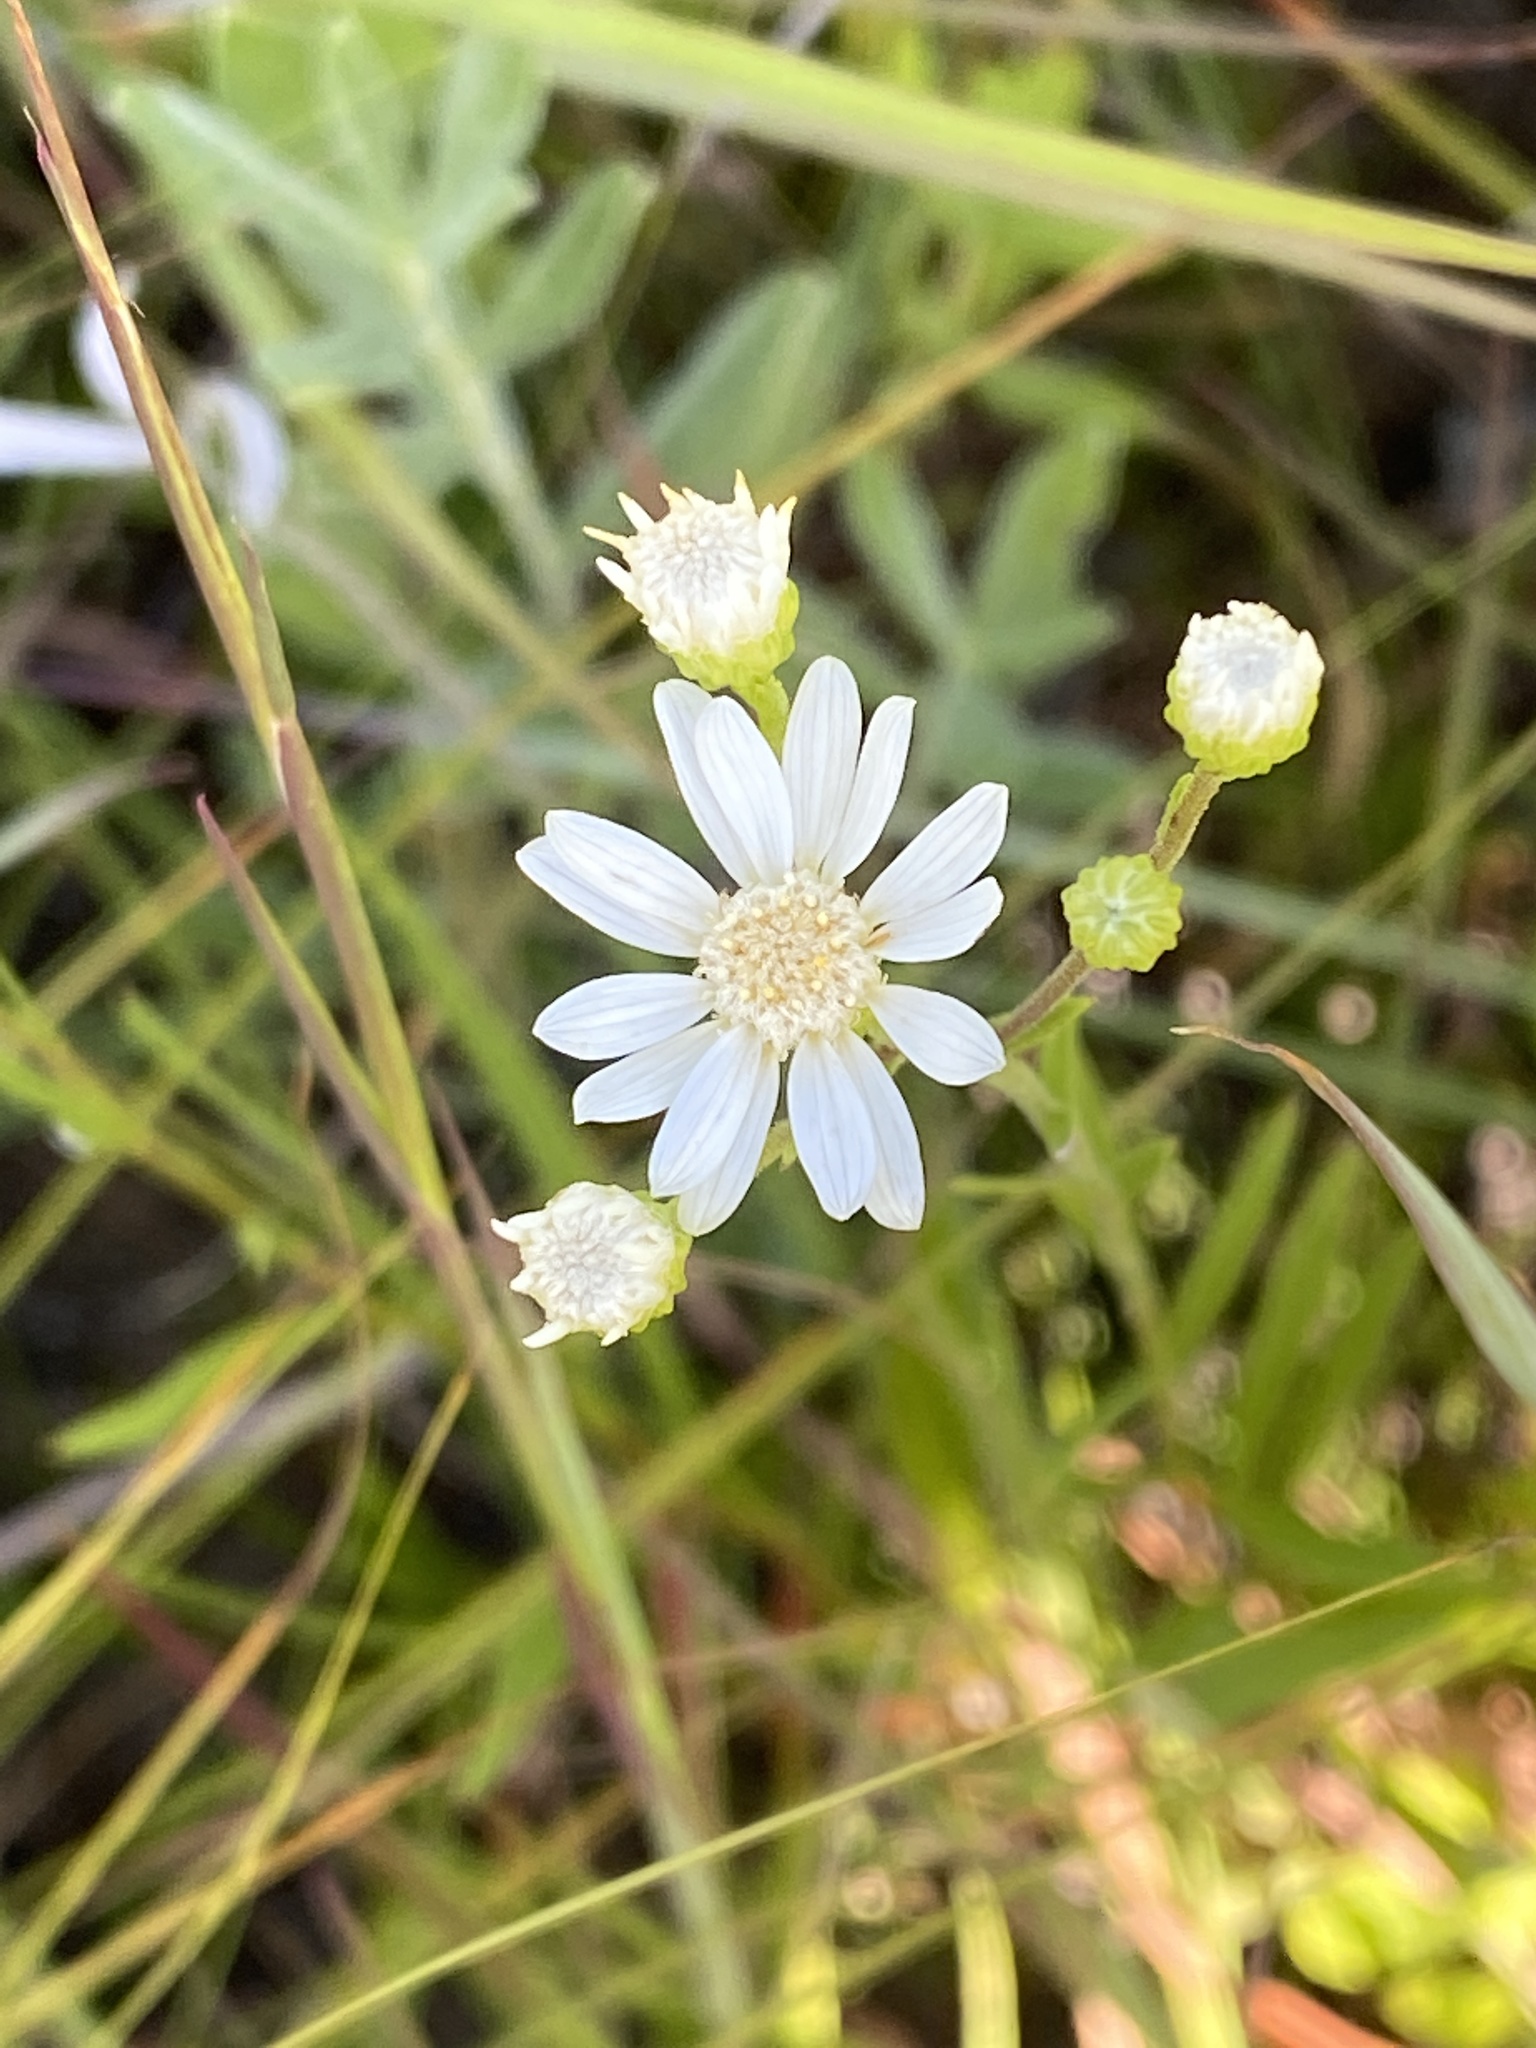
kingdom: Plantae
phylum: Tracheophyta
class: Magnoliopsida
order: Asterales
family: Asteraceae
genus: Solidago
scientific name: Solidago ptarmicoides
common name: White flat-top goldenrod
